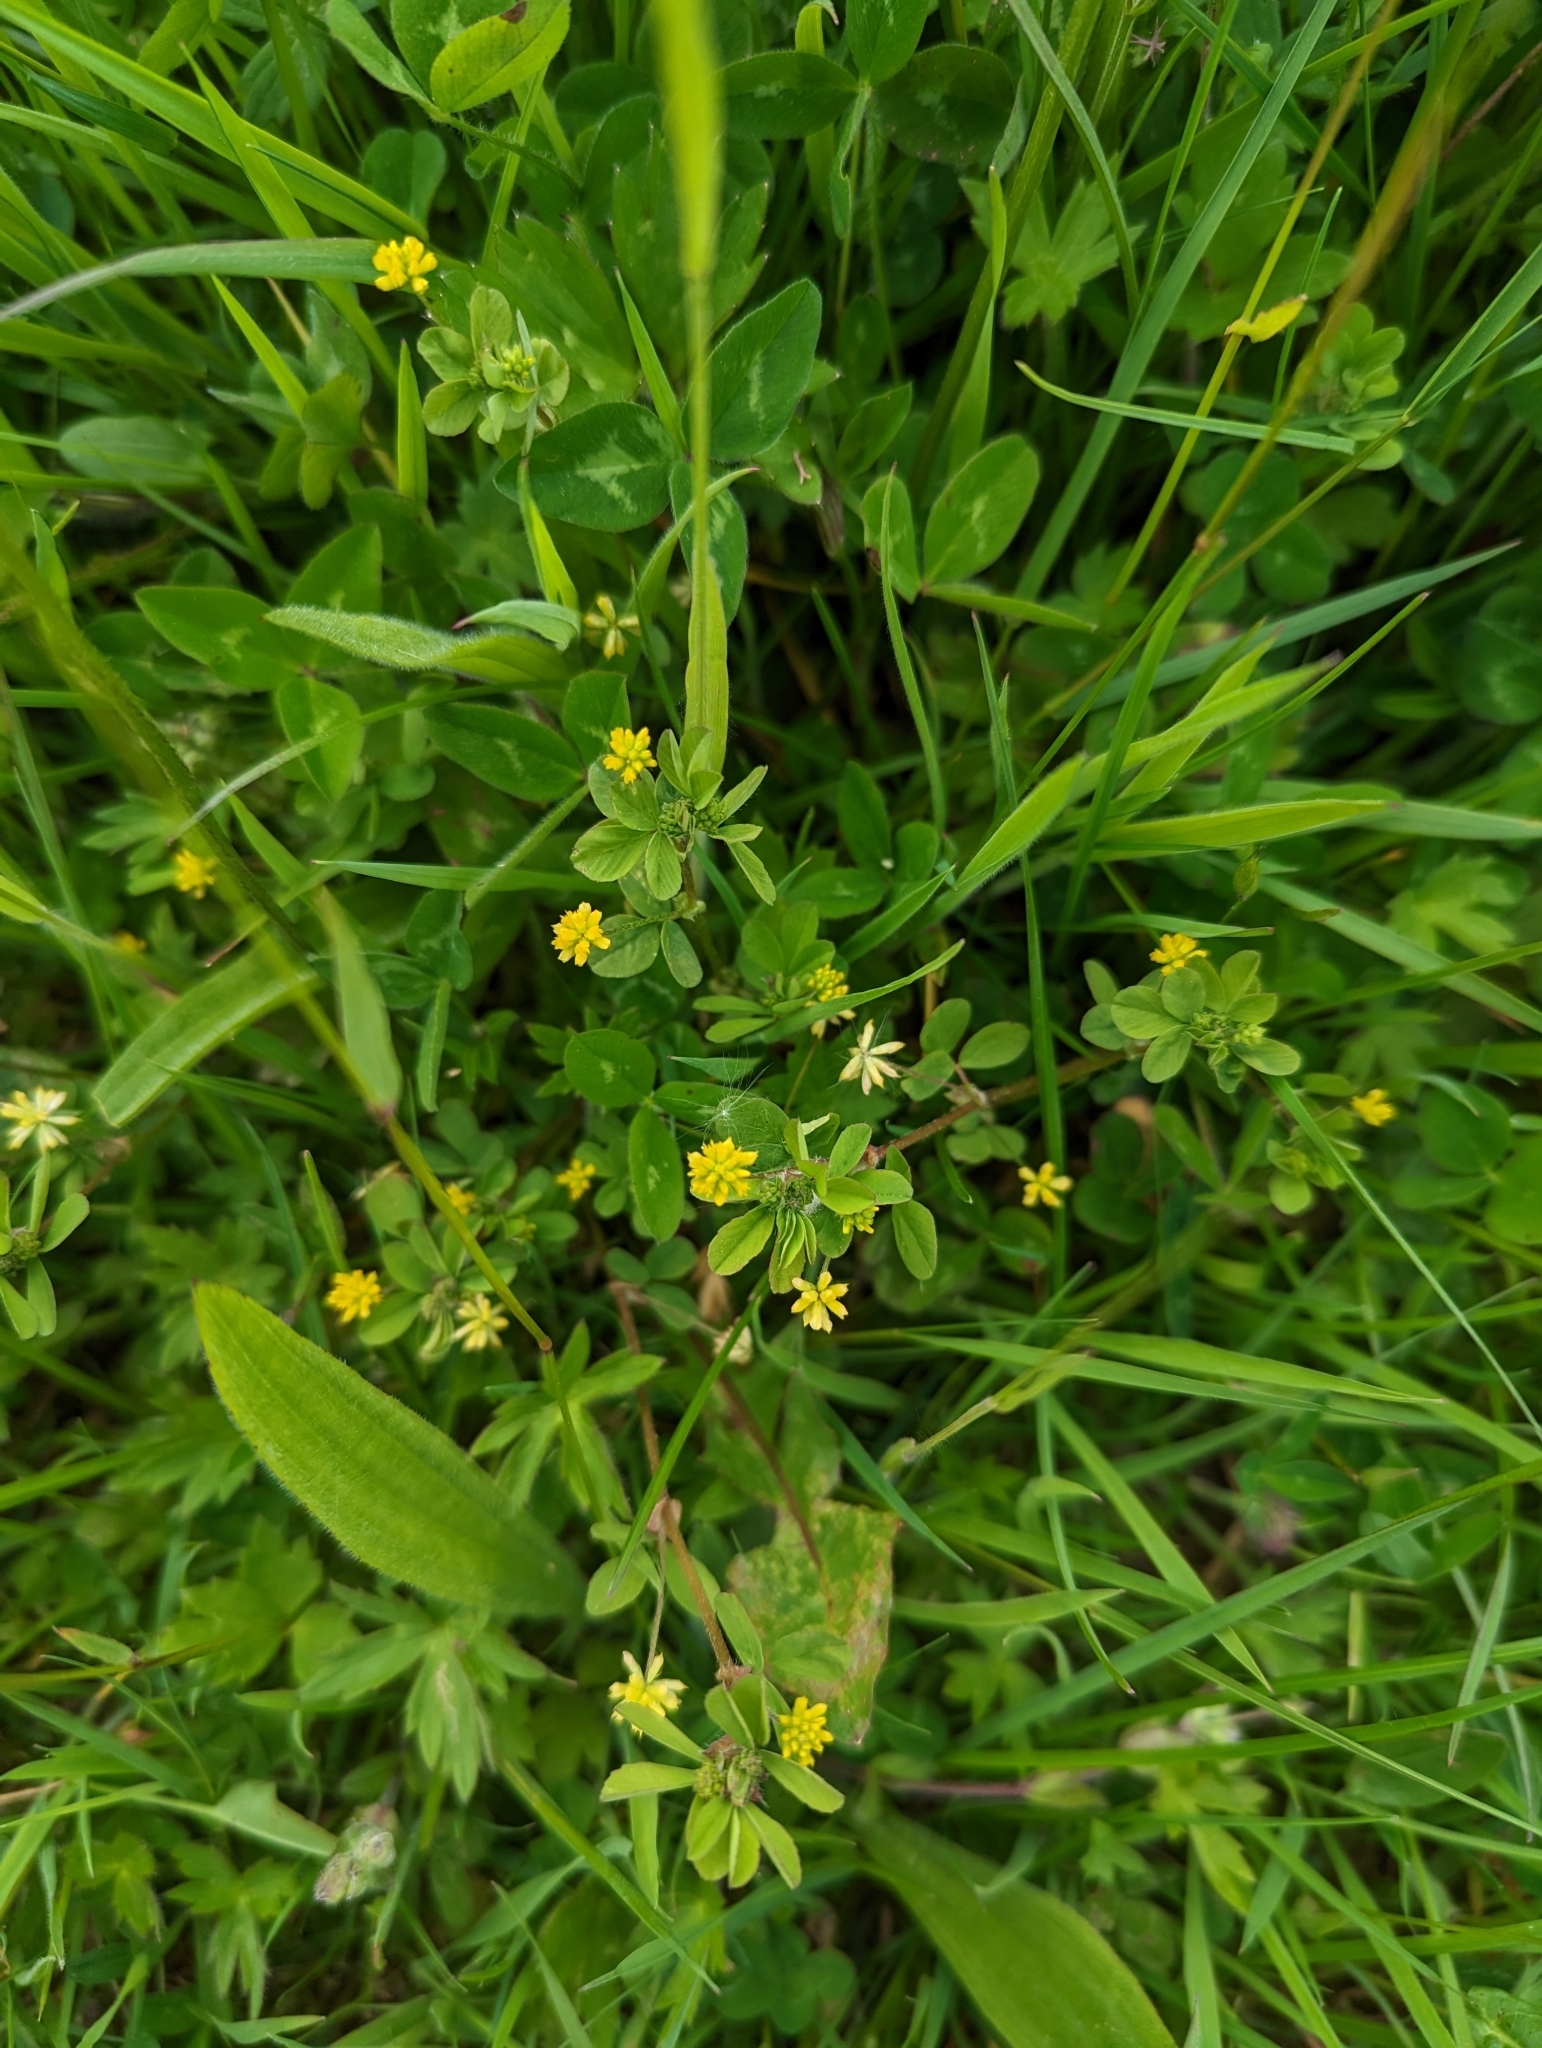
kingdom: Plantae
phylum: Tracheophyta
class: Magnoliopsida
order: Fabales
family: Fabaceae
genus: Trifolium
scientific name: Trifolium dubium
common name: Suckling clover
